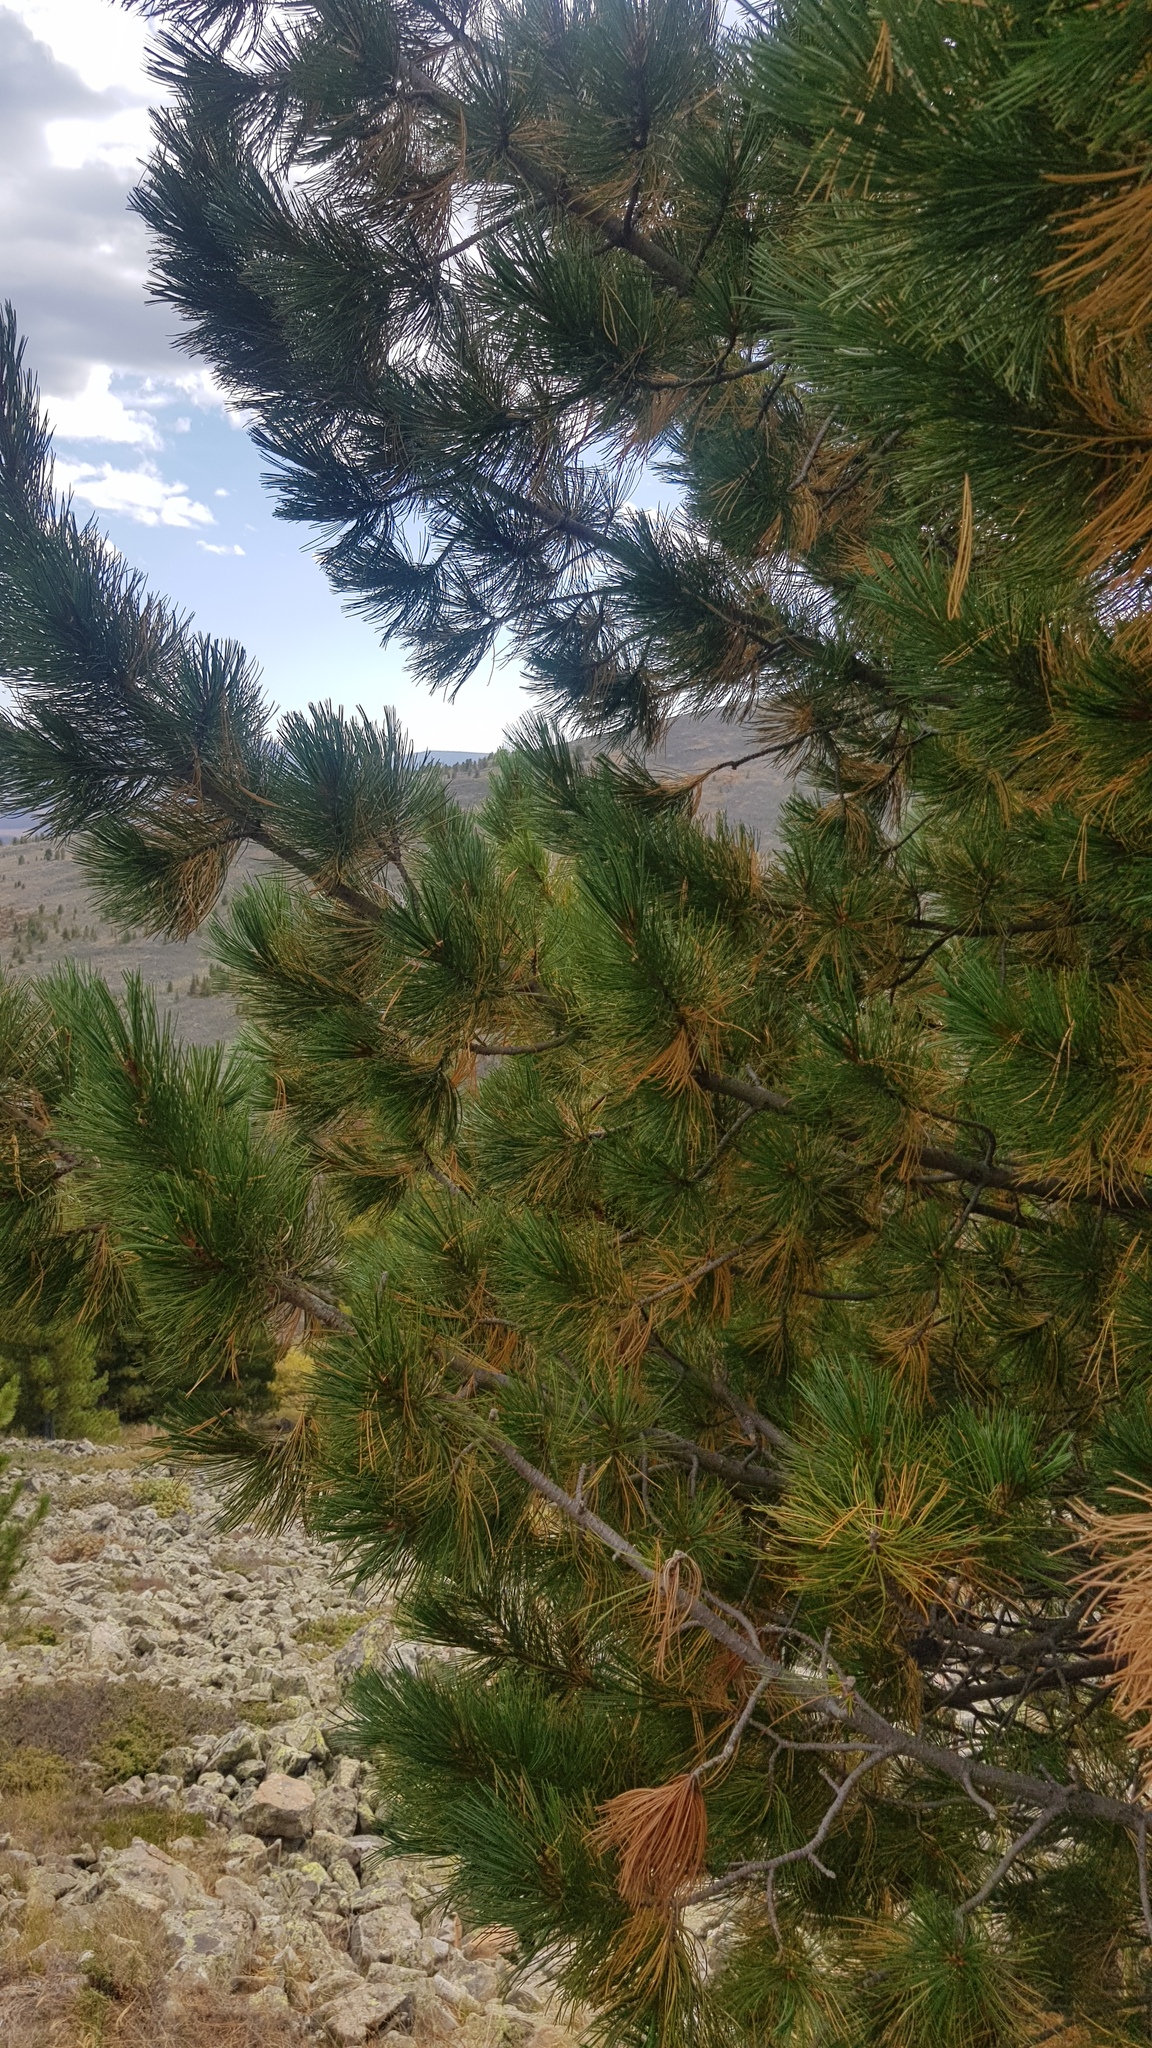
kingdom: Plantae
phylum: Tracheophyta
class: Pinopsida
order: Pinales
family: Pinaceae
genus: Pinus
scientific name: Pinus sibirica
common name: Siberian pine
